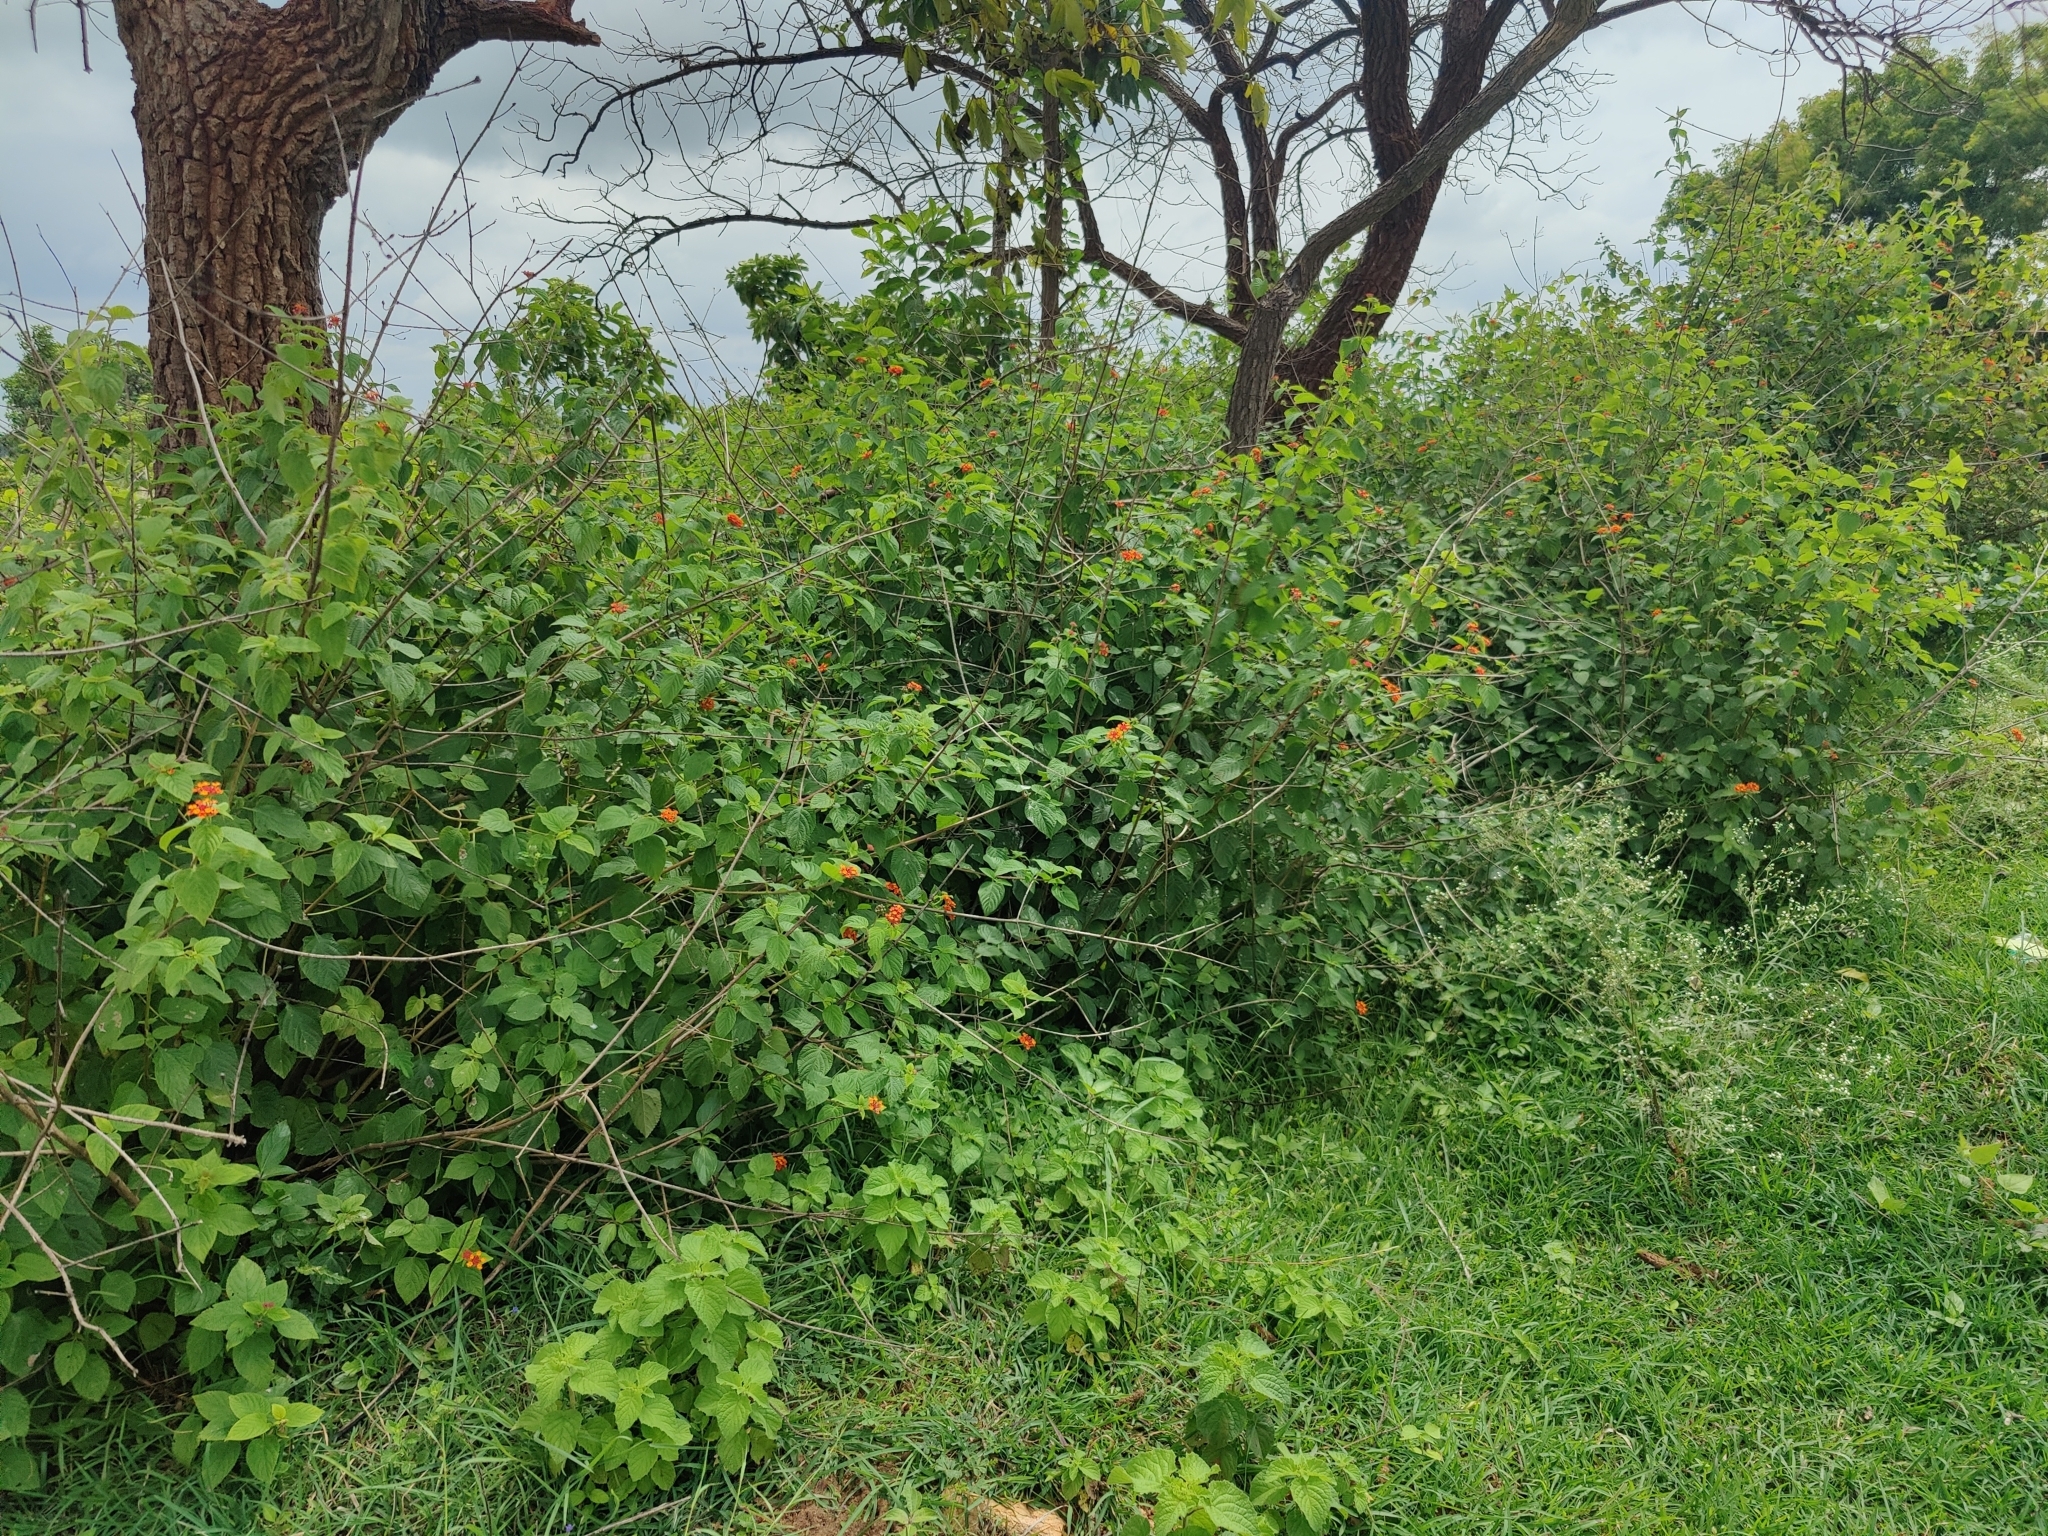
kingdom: Plantae
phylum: Tracheophyta
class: Magnoliopsida
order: Lamiales
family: Verbenaceae
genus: Lantana
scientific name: Lantana camara
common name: Lantana
